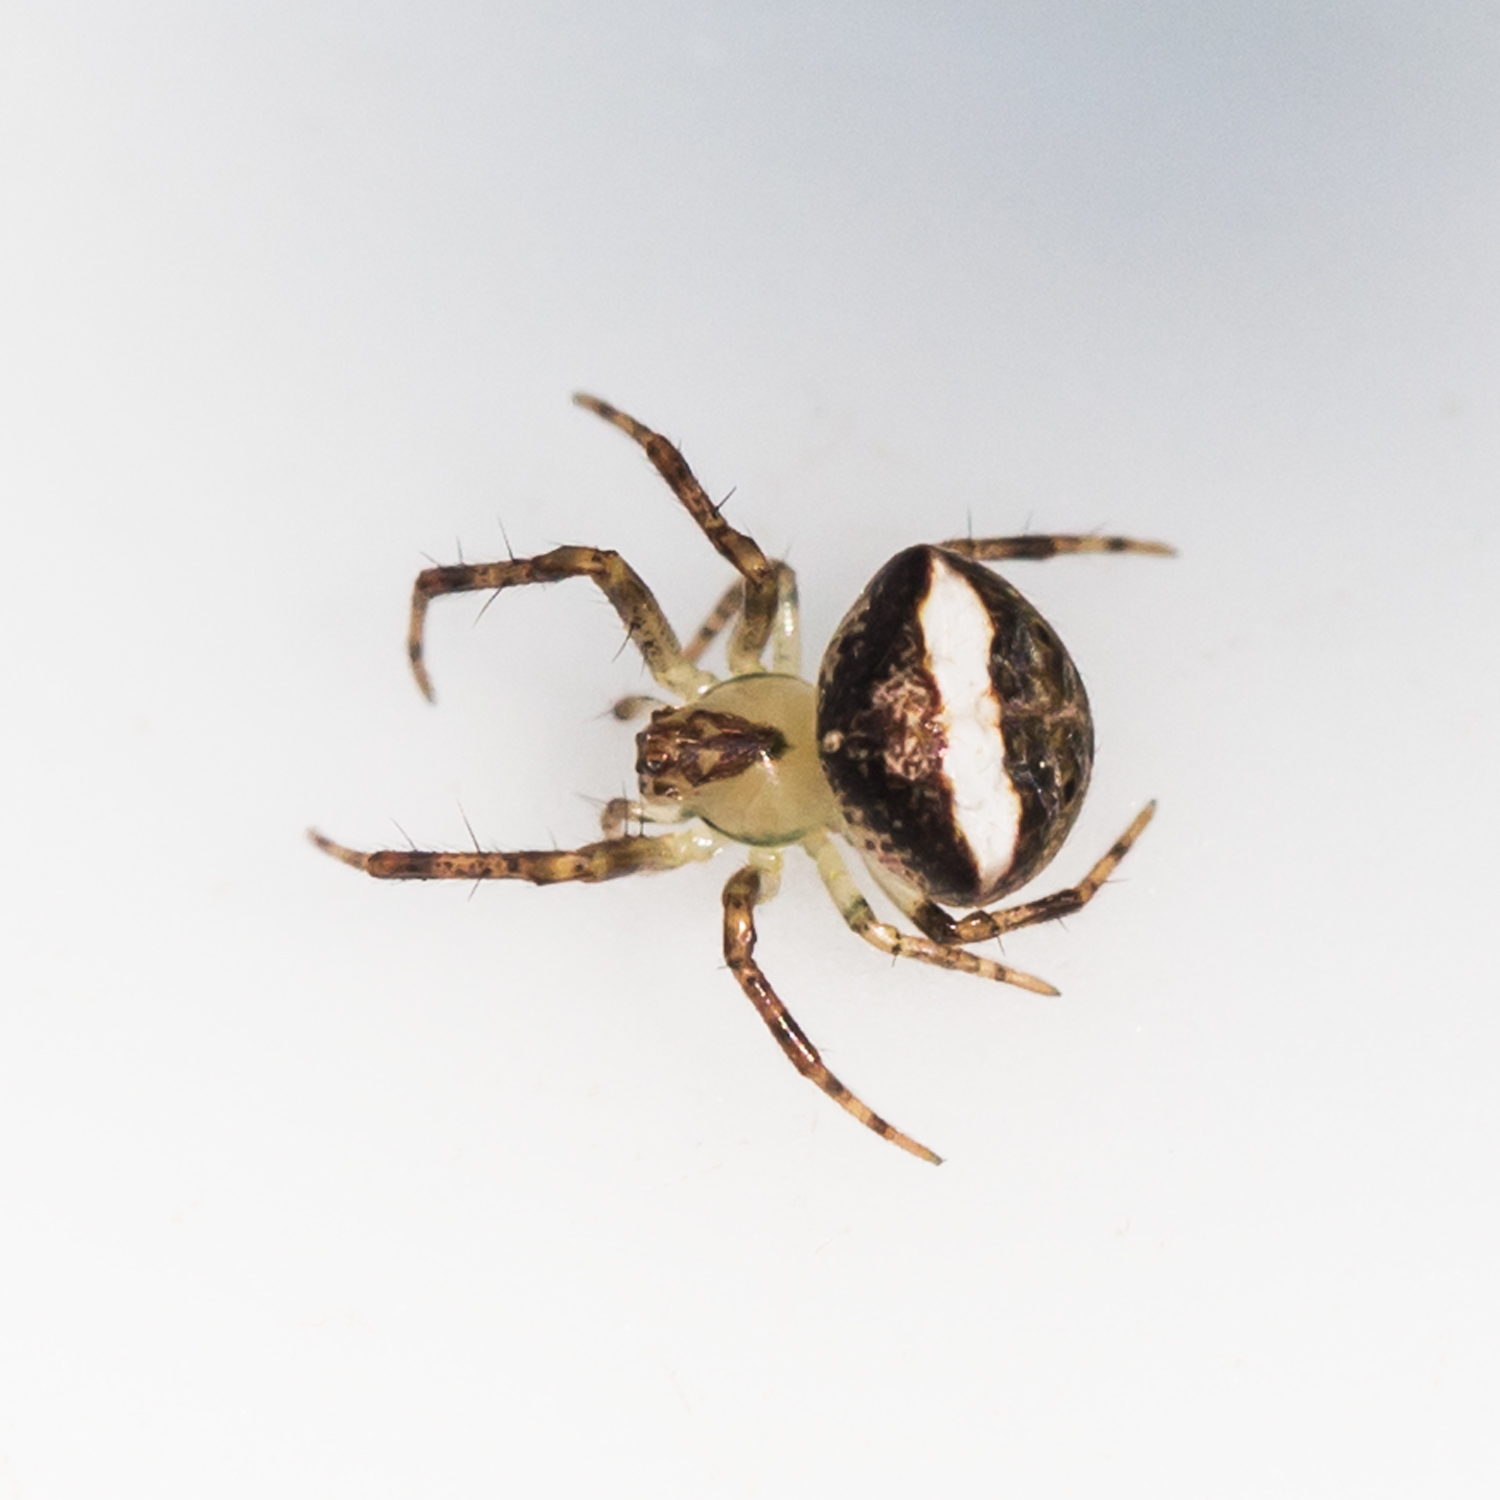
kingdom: Animalia
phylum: Arthropoda
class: Arachnida
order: Araneae
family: Araneidae
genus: Araneus
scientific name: Araneus miniatus
